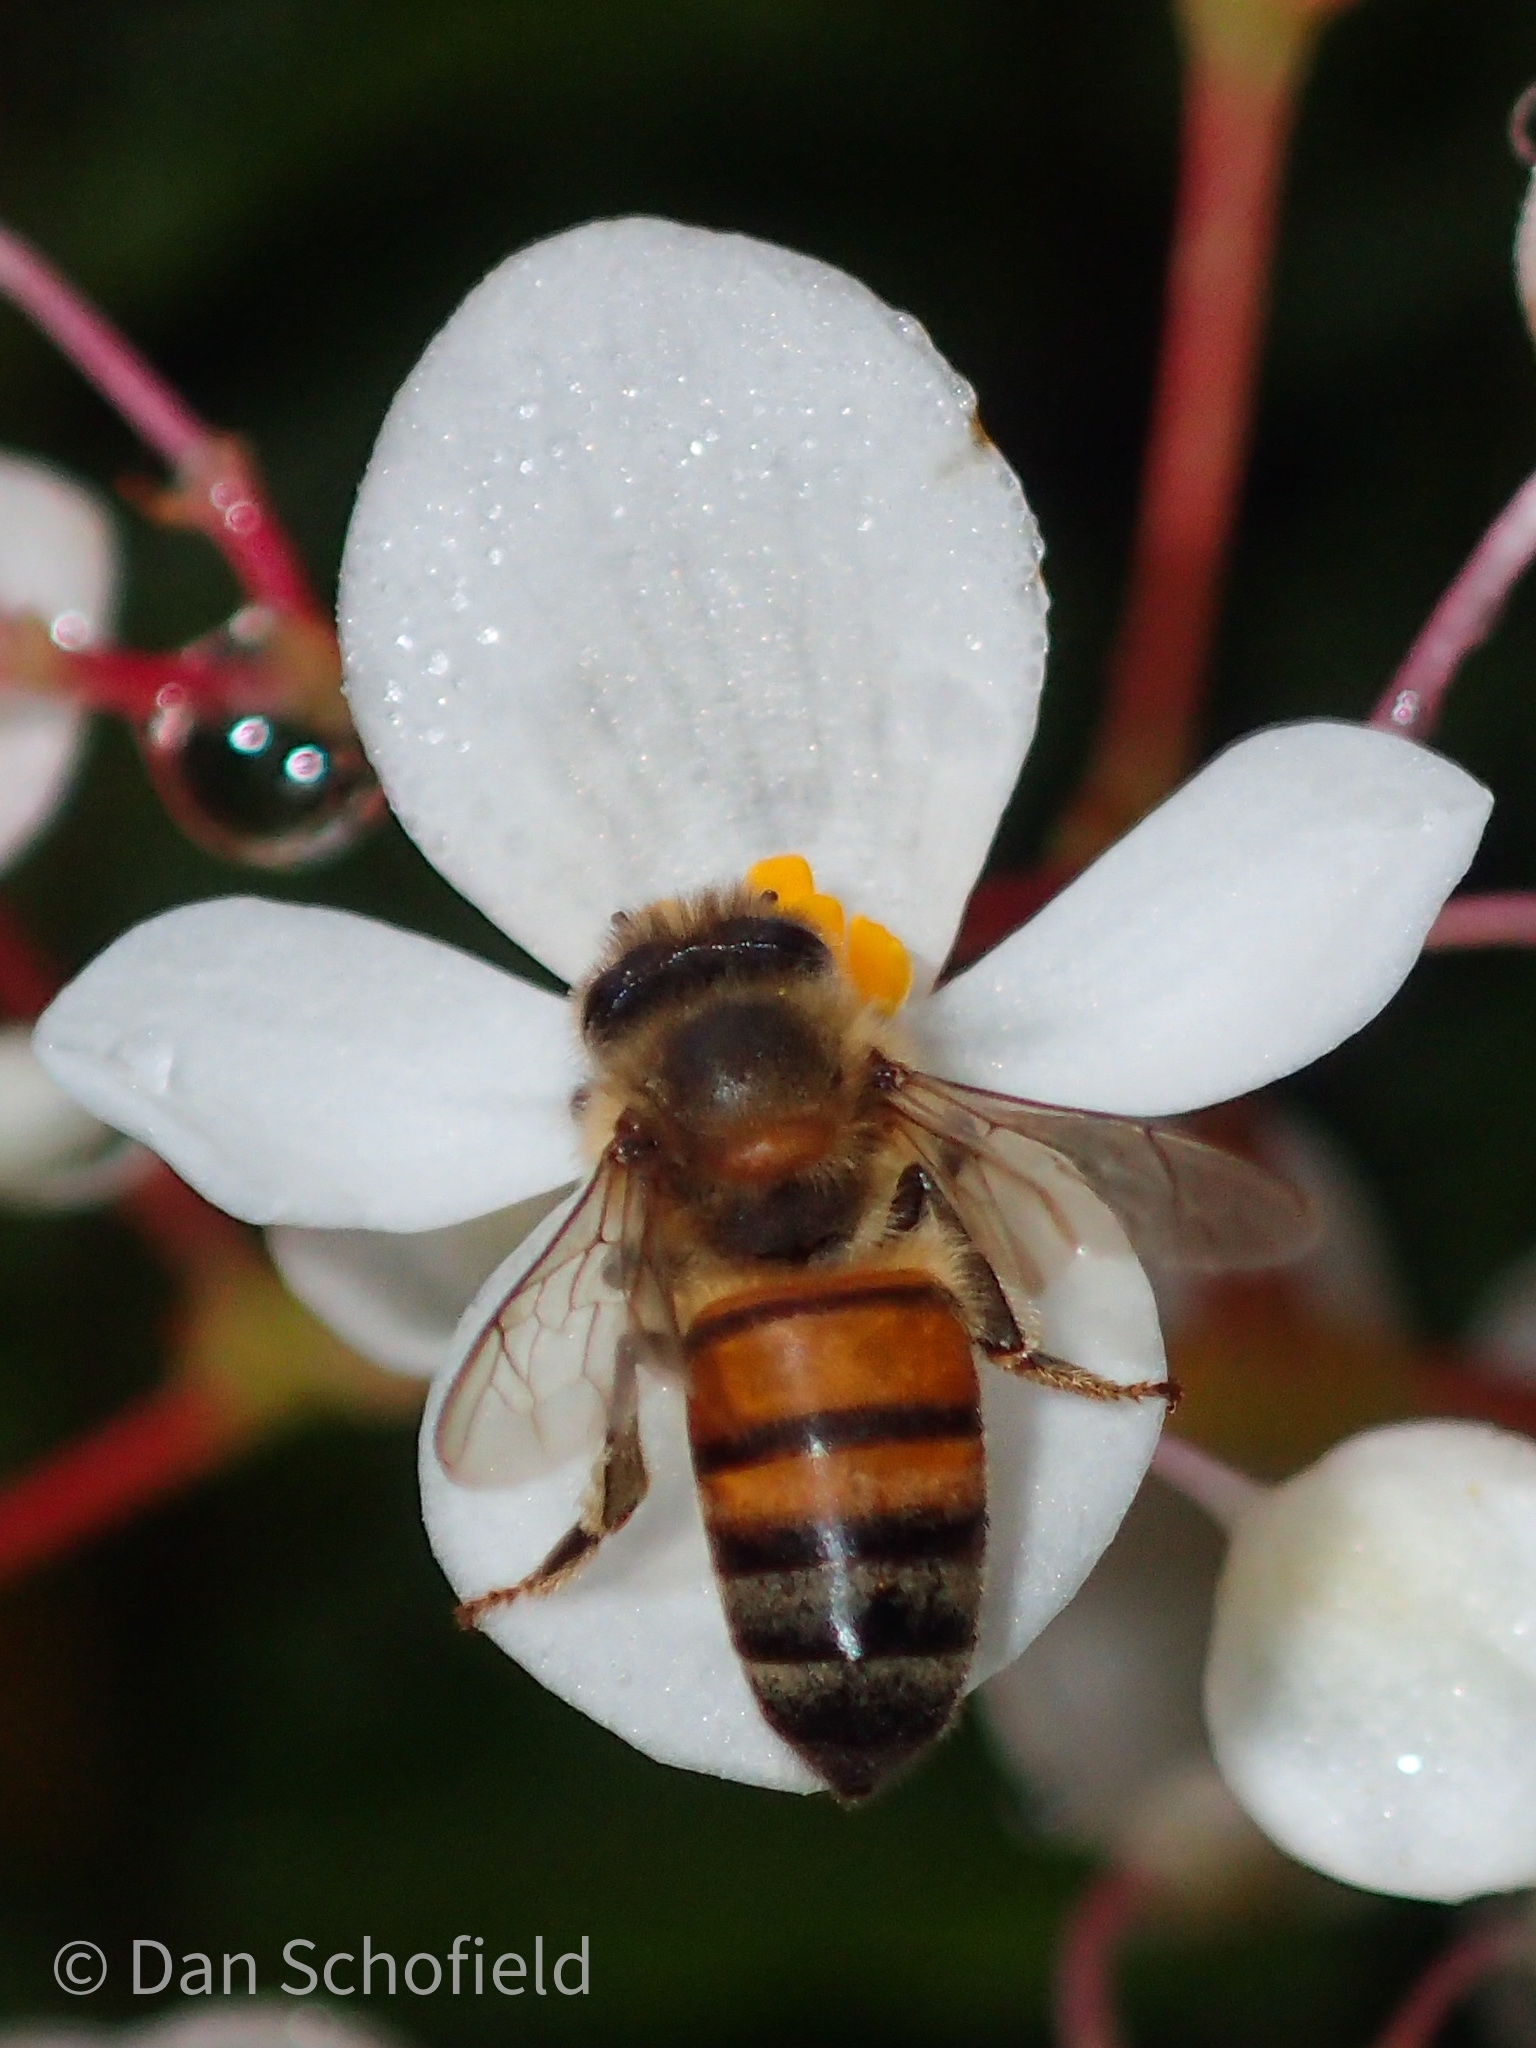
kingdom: Animalia
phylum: Arthropoda
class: Insecta
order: Hymenoptera
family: Apidae
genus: Apis
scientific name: Apis mellifera
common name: Honey bee
